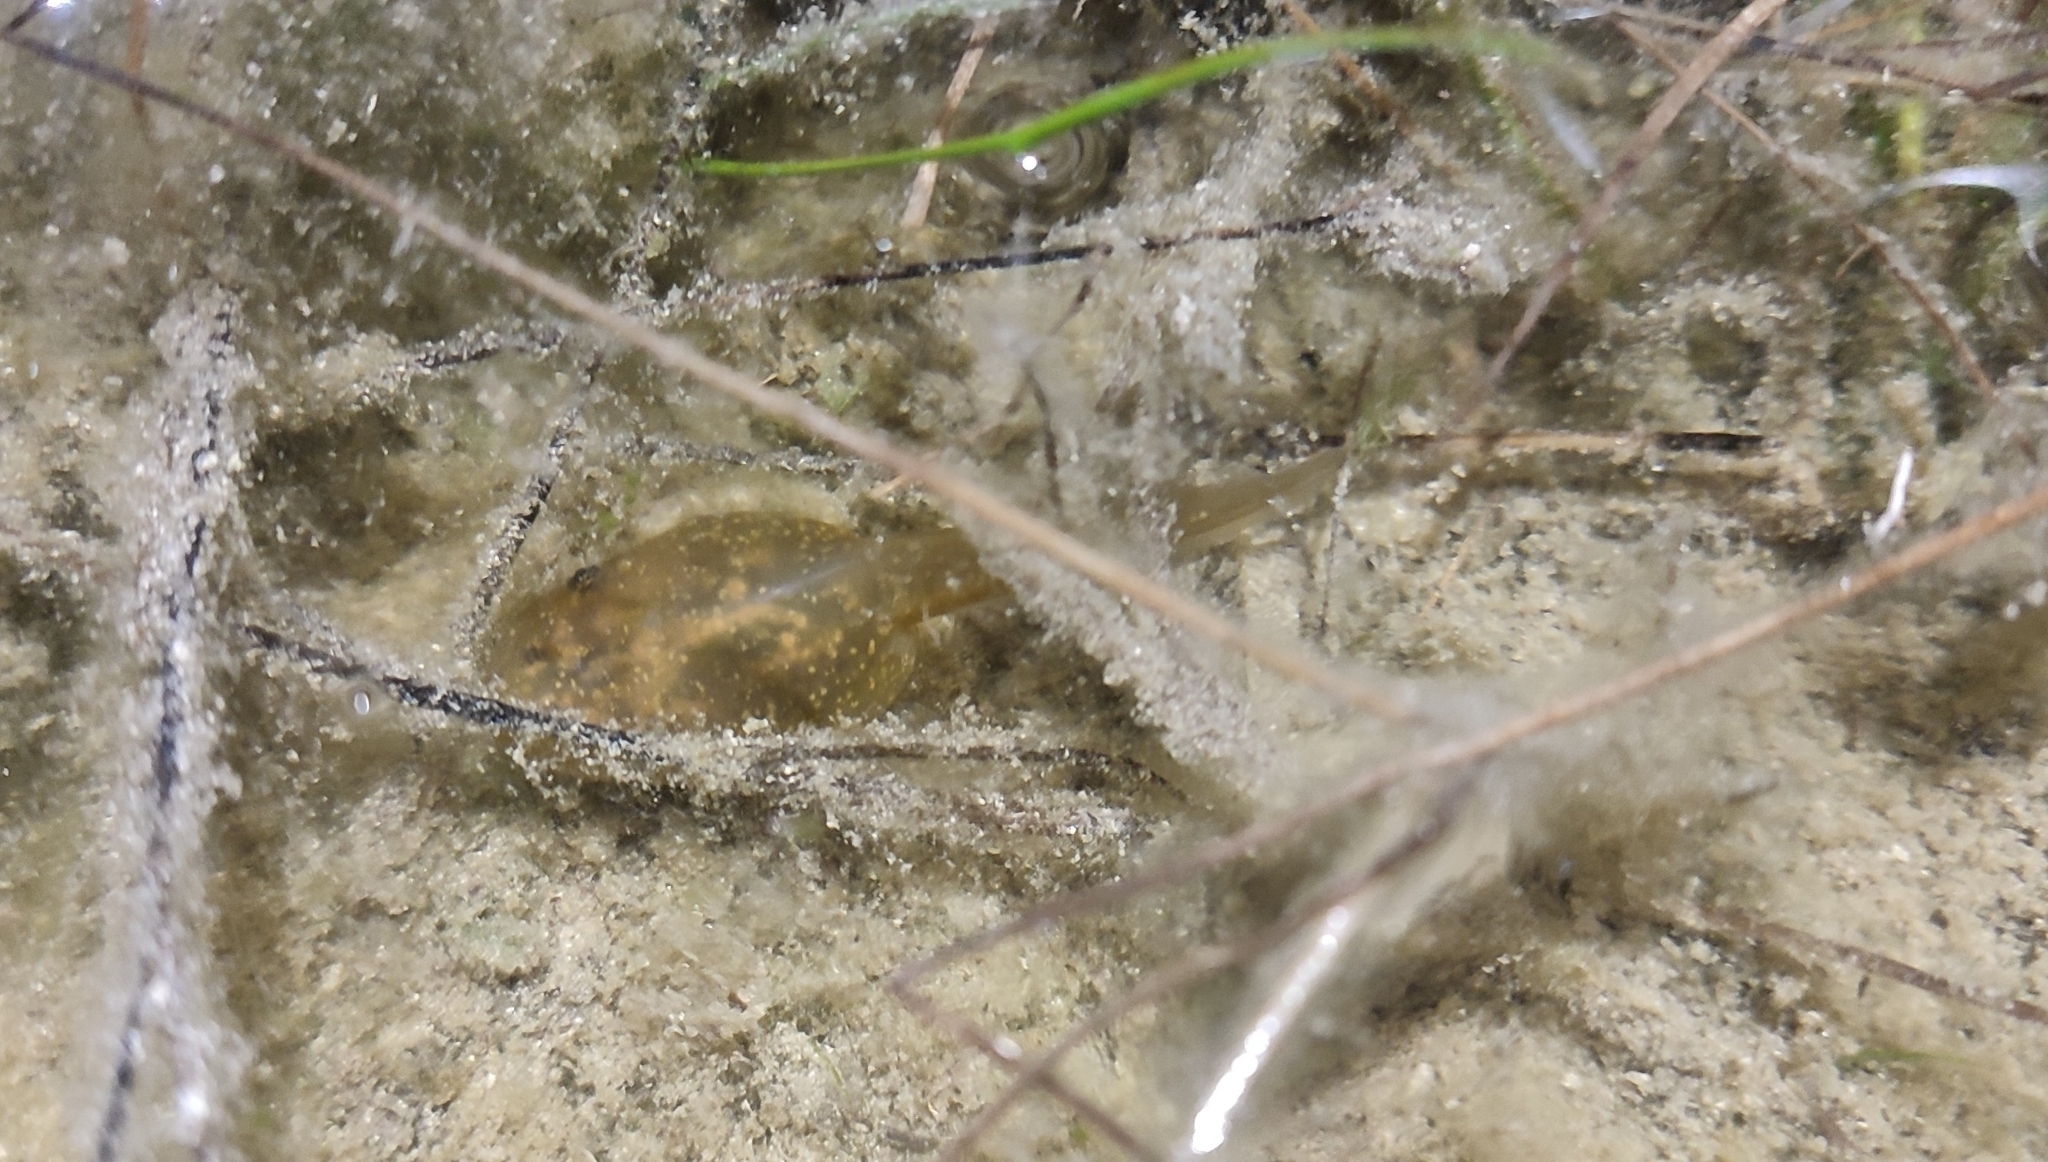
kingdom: Animalia
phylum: Chordata
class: Amphibia
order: Anura
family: Pelobatidae
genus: Pelobates
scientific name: Pelobates cultripes
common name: Western spadefoot
